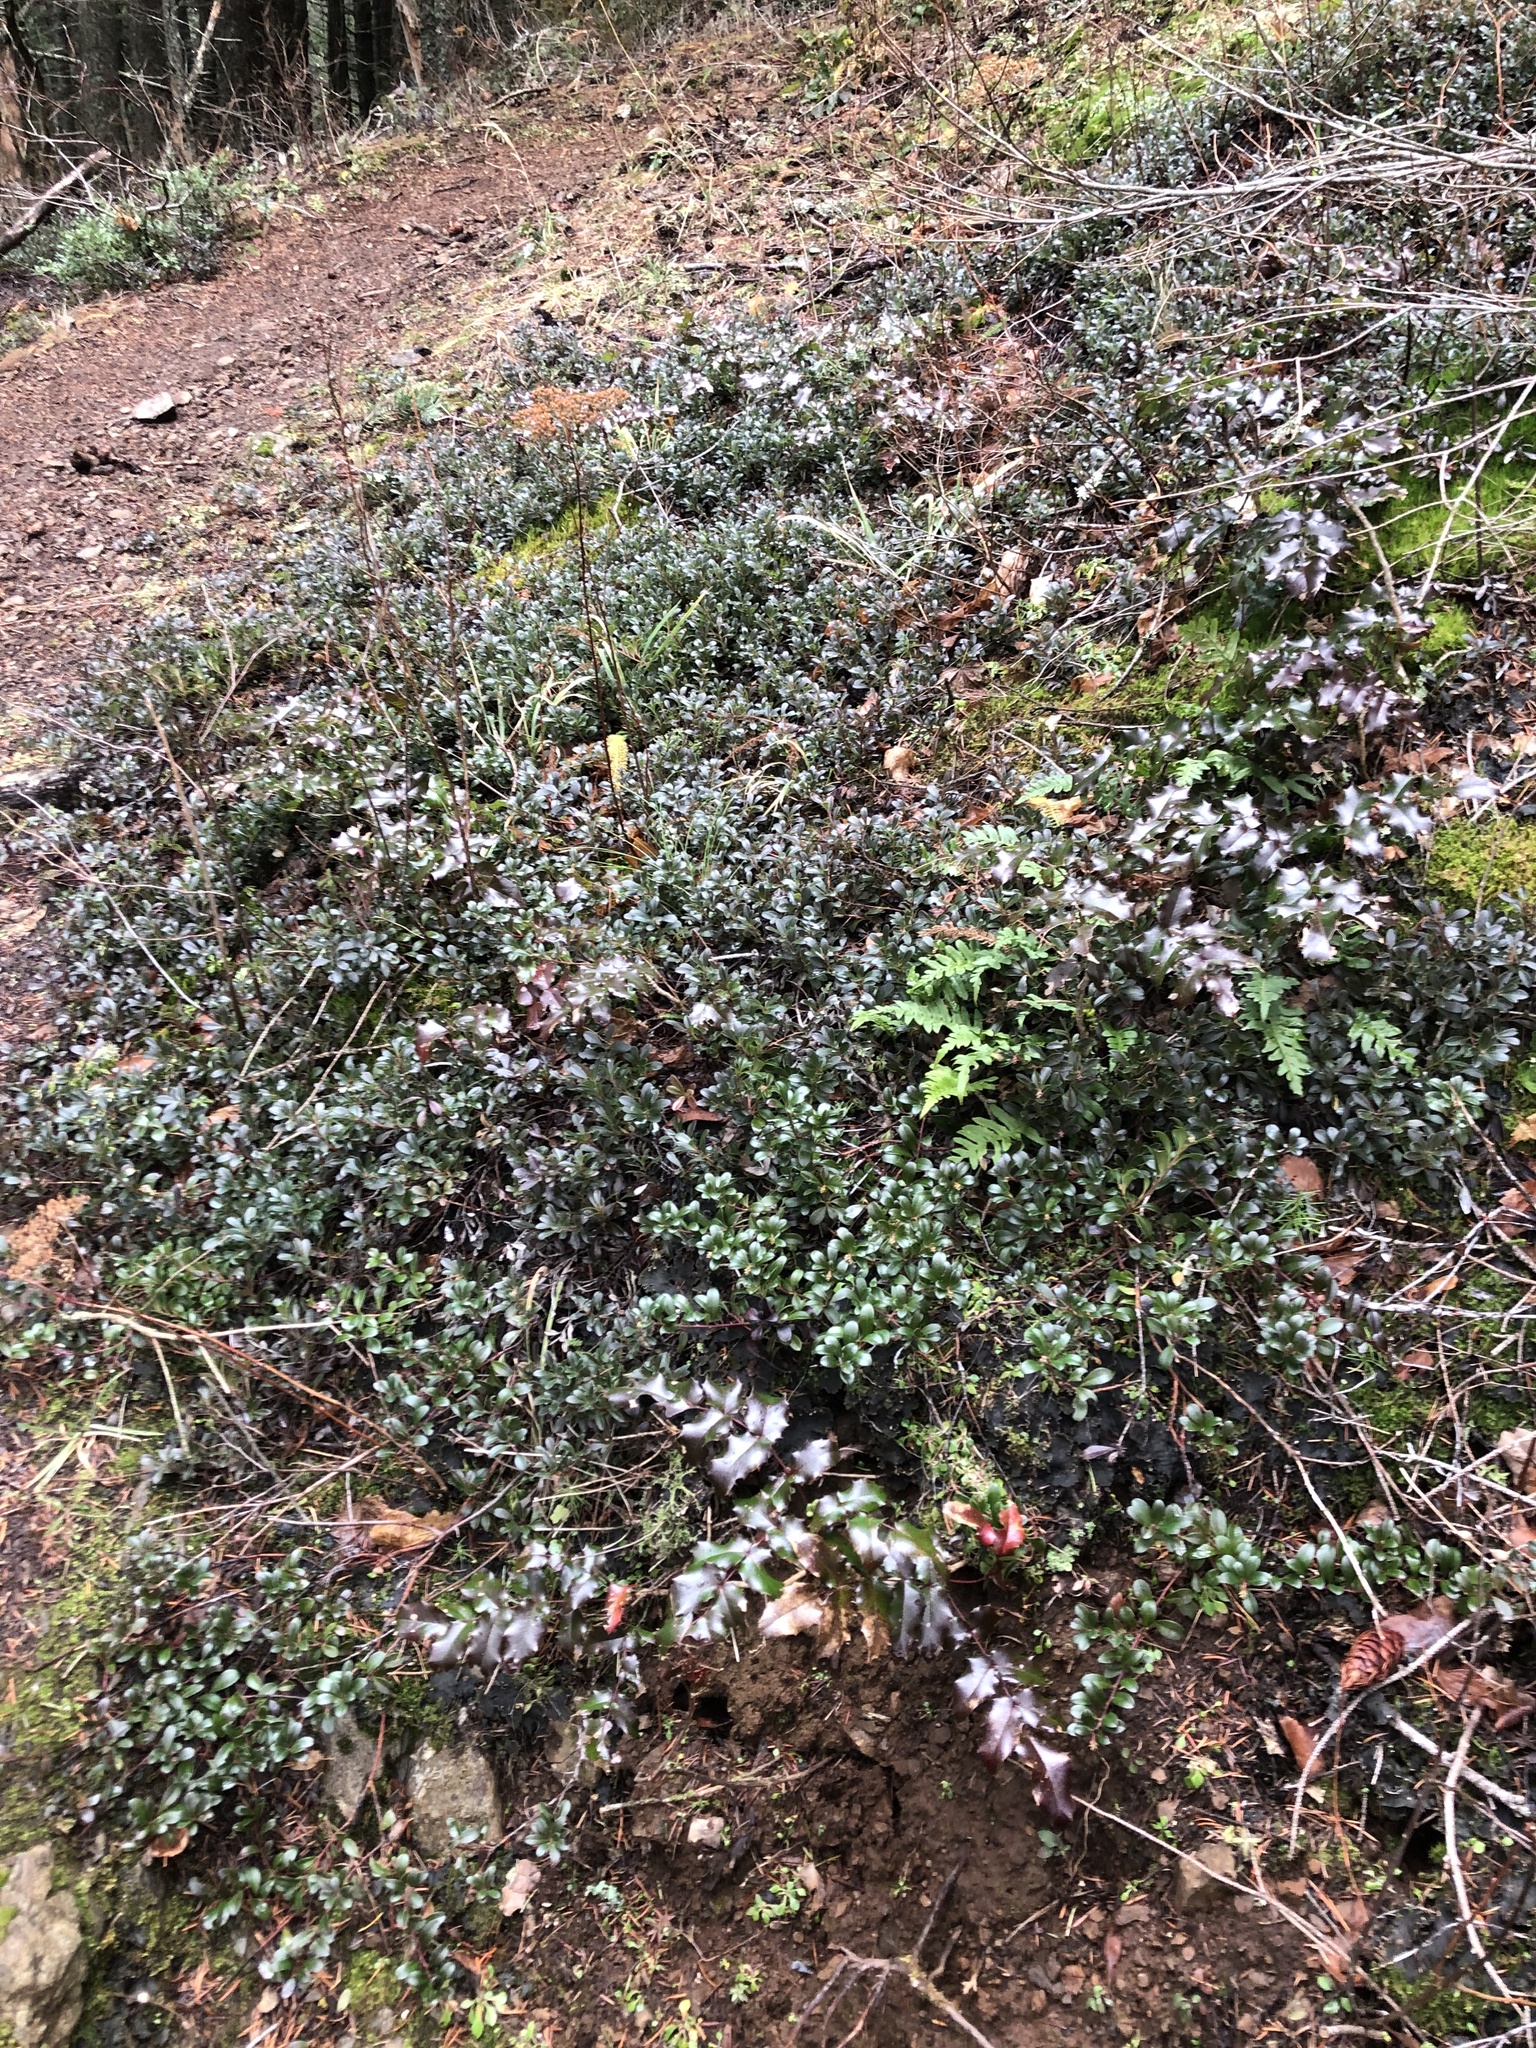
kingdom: Plantae
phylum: Tracheophyta
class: Magnoliopsida
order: Ranunculales
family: Berberidaceae
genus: Mahonia
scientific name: Mahonia aquifolium
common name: Oregon-grape
